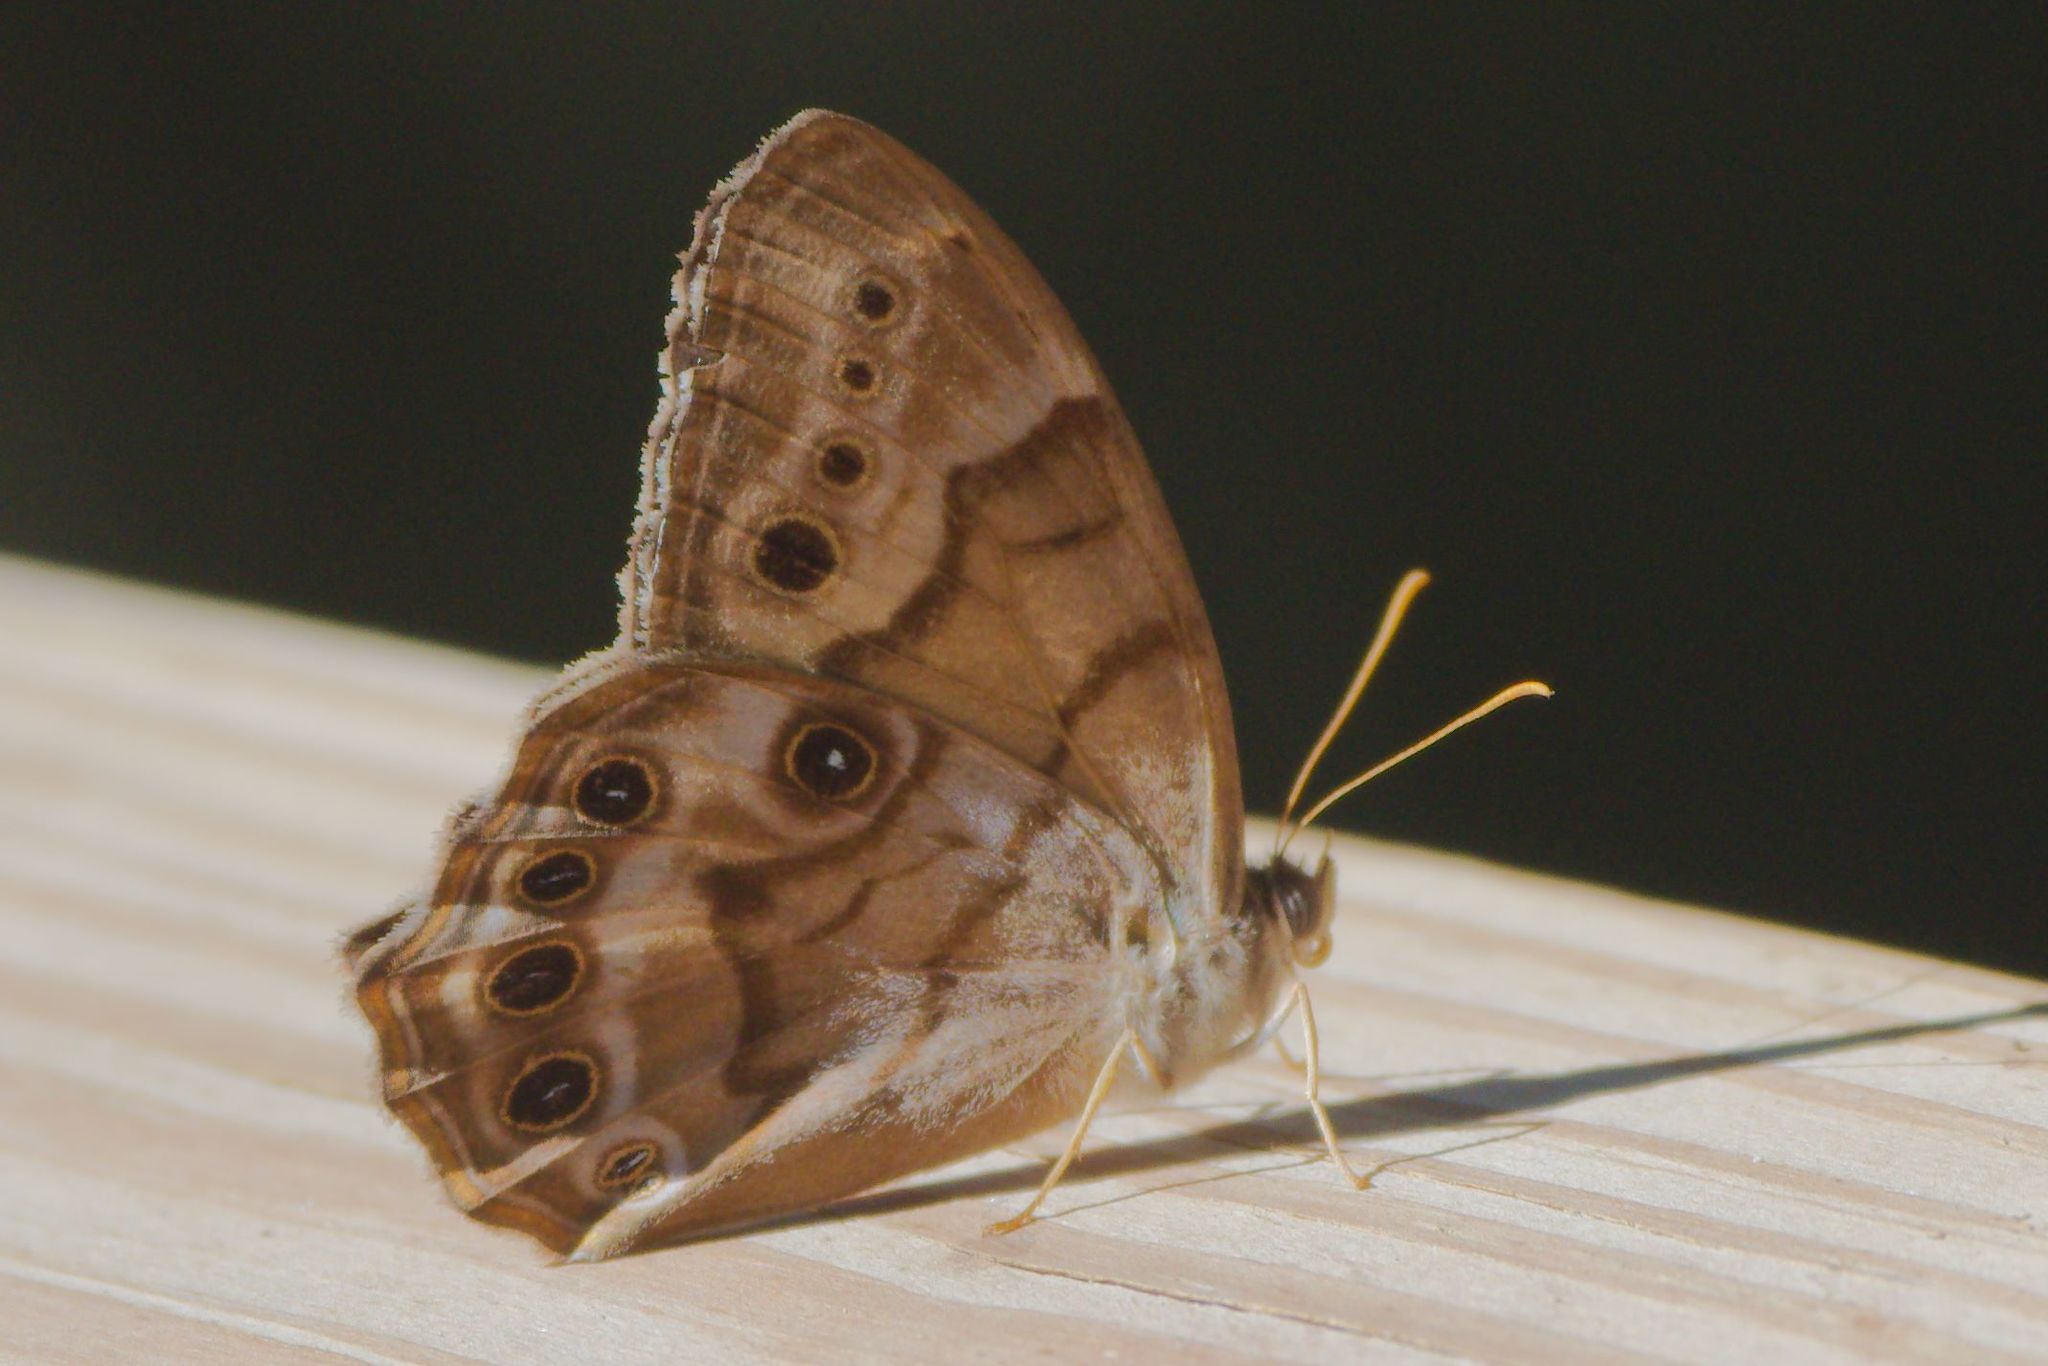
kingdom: Animalia
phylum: Arthropoda
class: Insecta
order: Lepidoptera
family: Nymphalidae
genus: Enodia
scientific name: Enodia portlandia
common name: Southern pearly-eye
